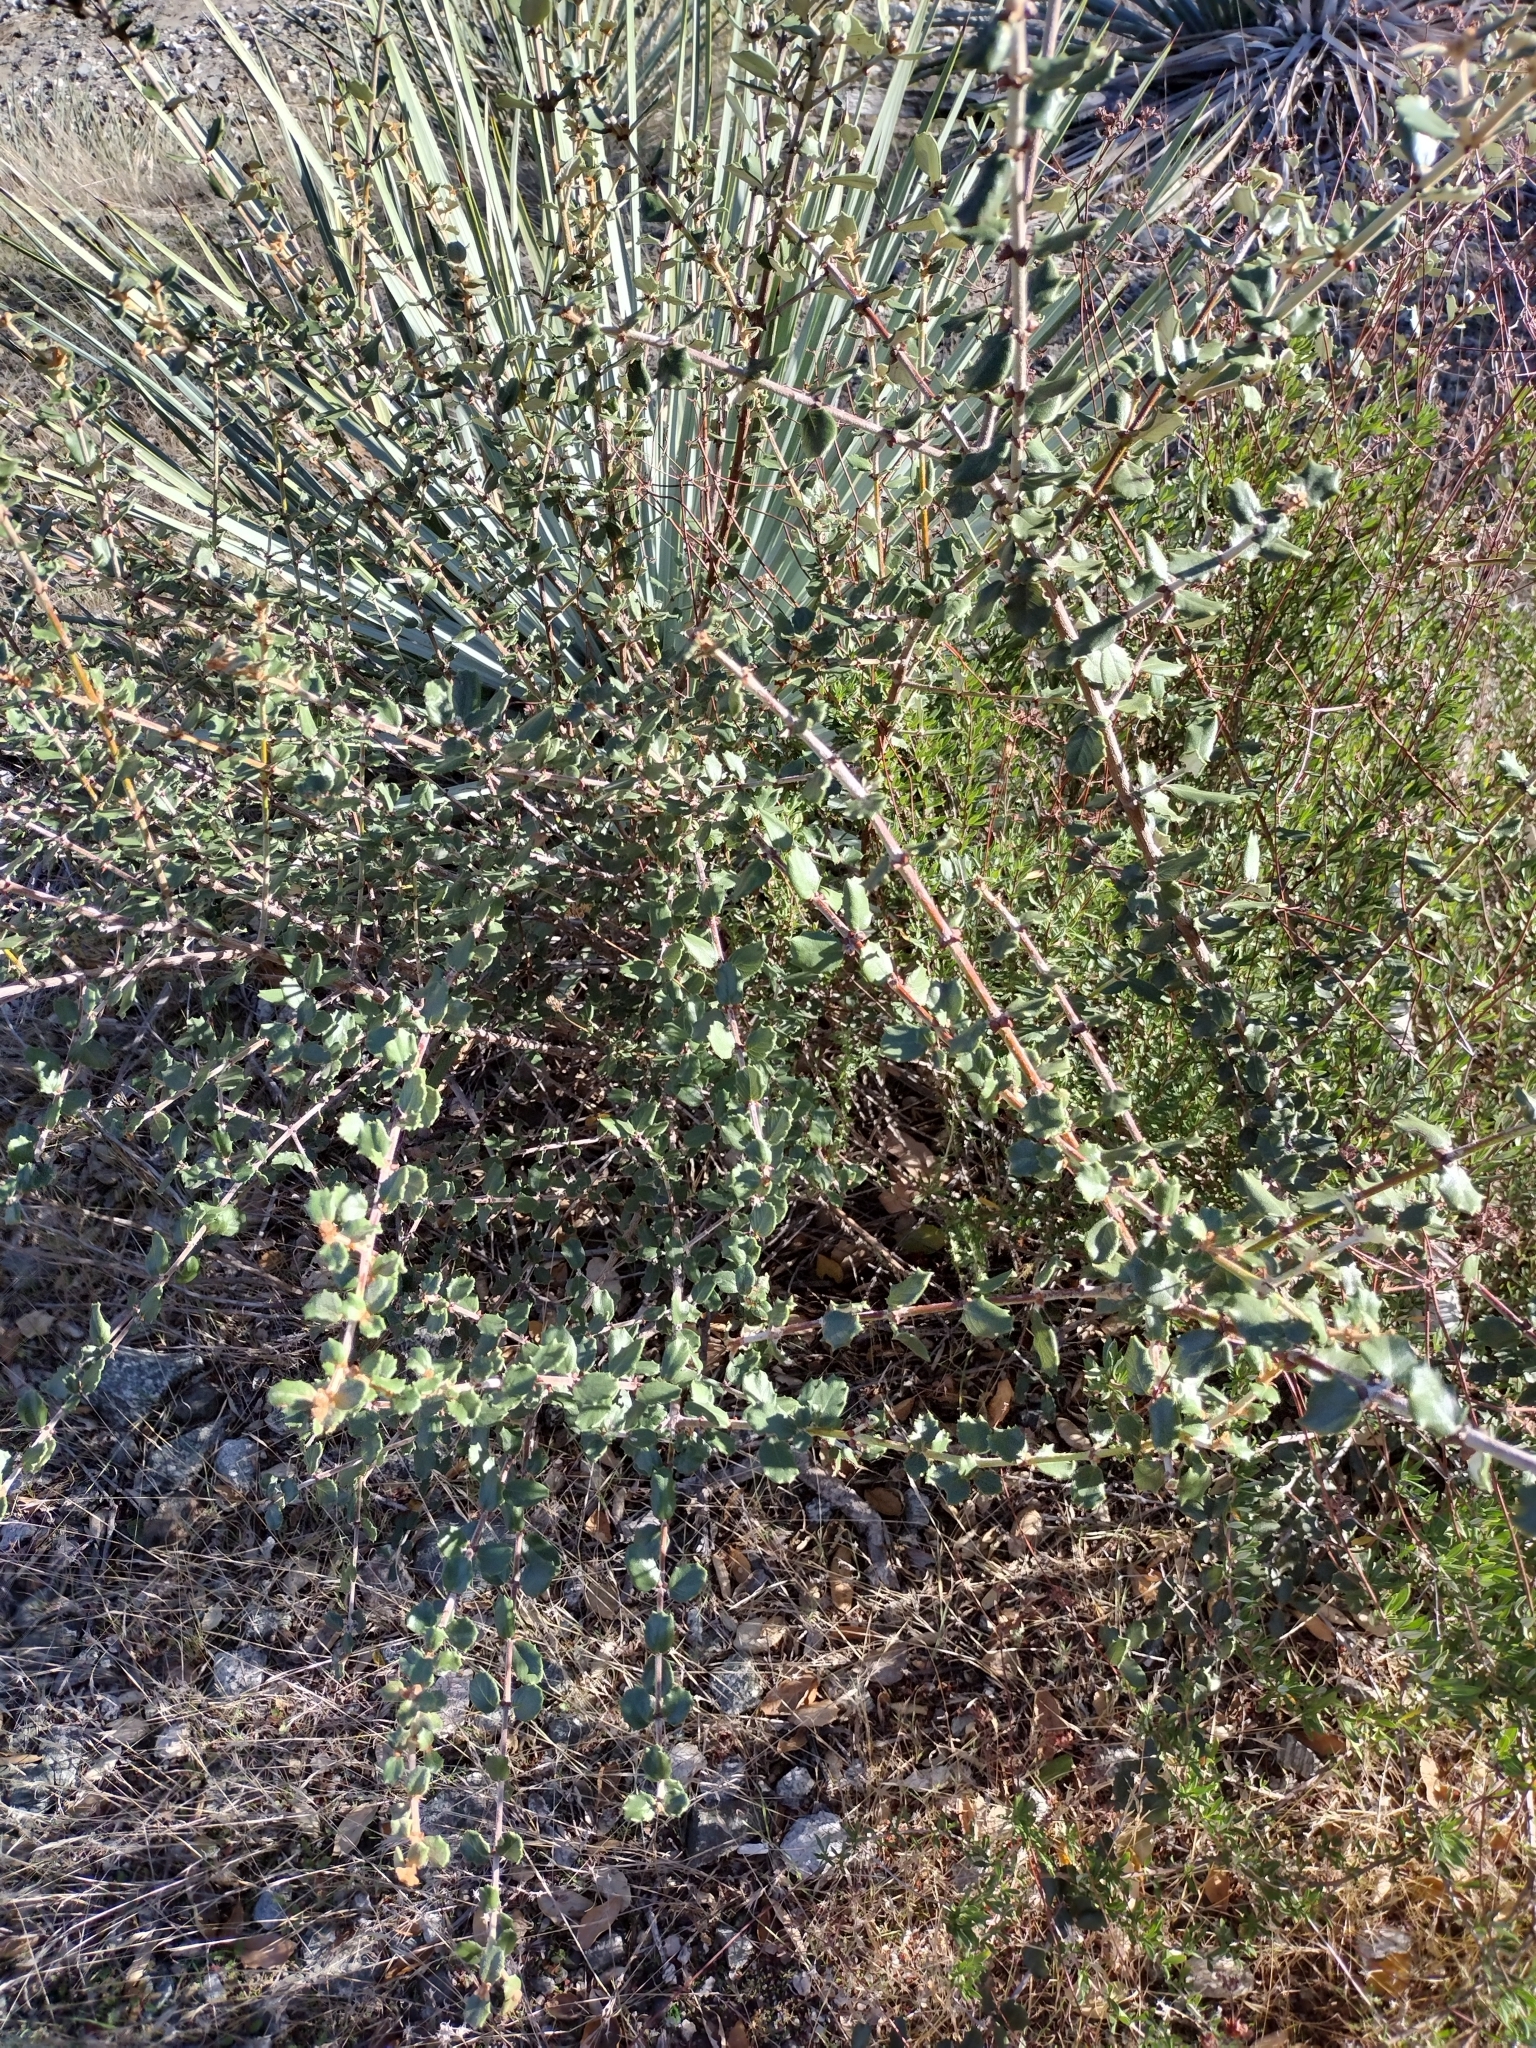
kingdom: Plantae
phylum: Tracheophyta
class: Magnoliopsida
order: Rosales
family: Rhamnaceae
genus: Ceanothus
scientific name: Ceanothus crassifolius
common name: Hoaryleaf ceanothus
